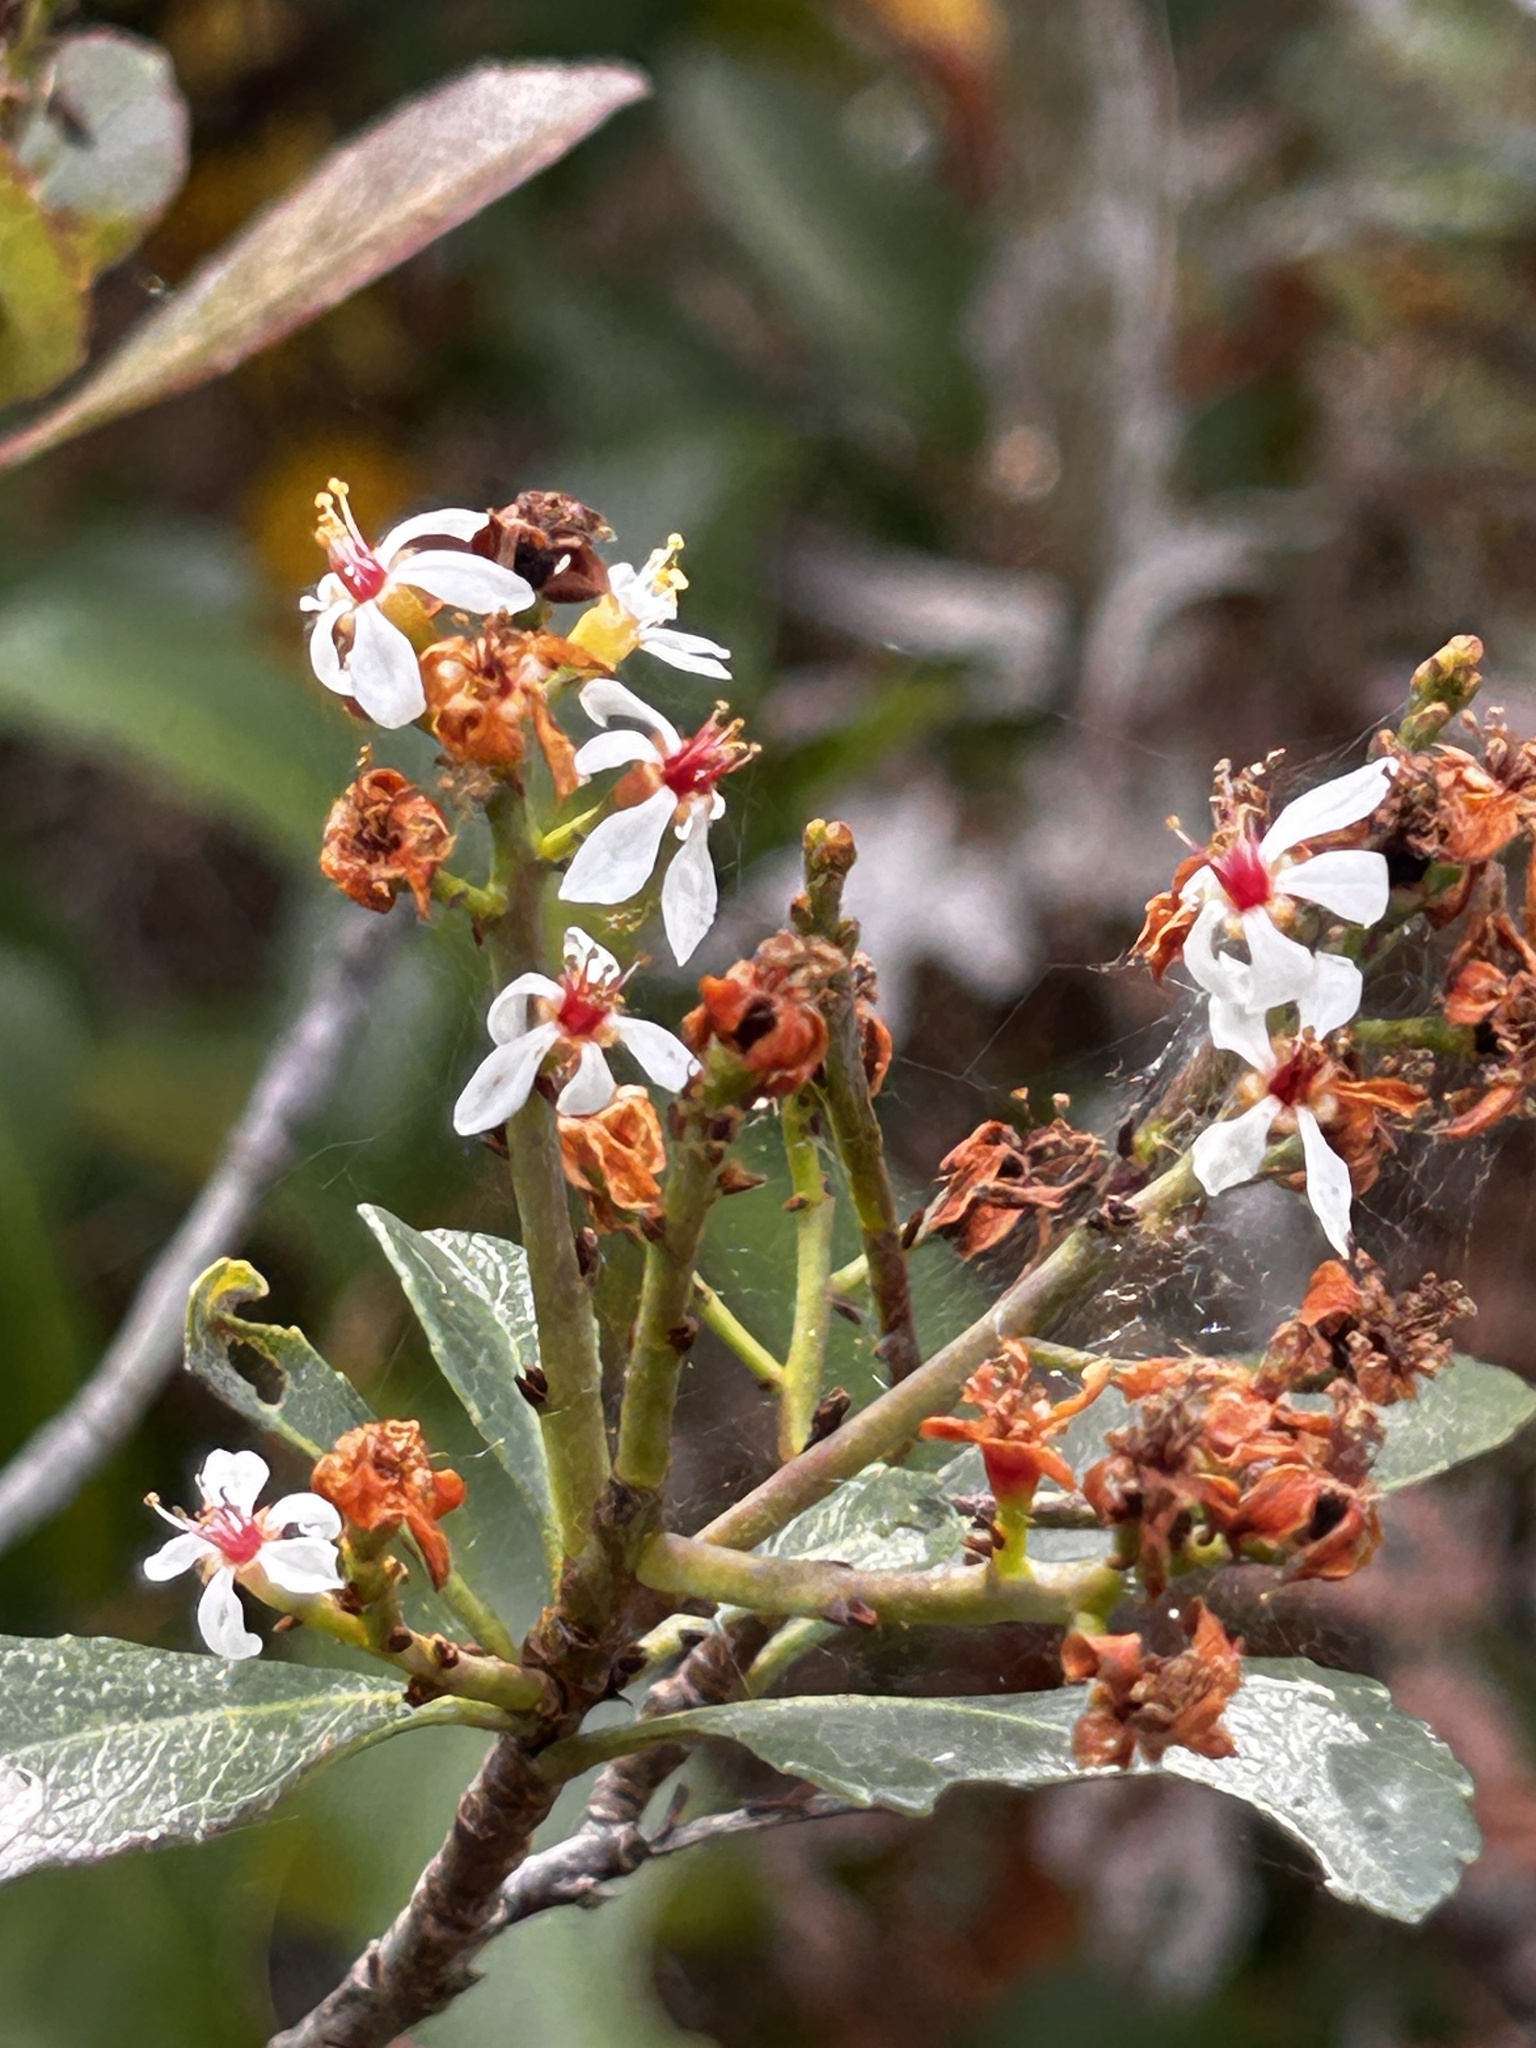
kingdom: Plantae
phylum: Tracheophyta
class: Magnoliopsida
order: Rosales
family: Rosaceae
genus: Rhaphiolepis
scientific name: Rhaphiolepis indica
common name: India-hawthorn
